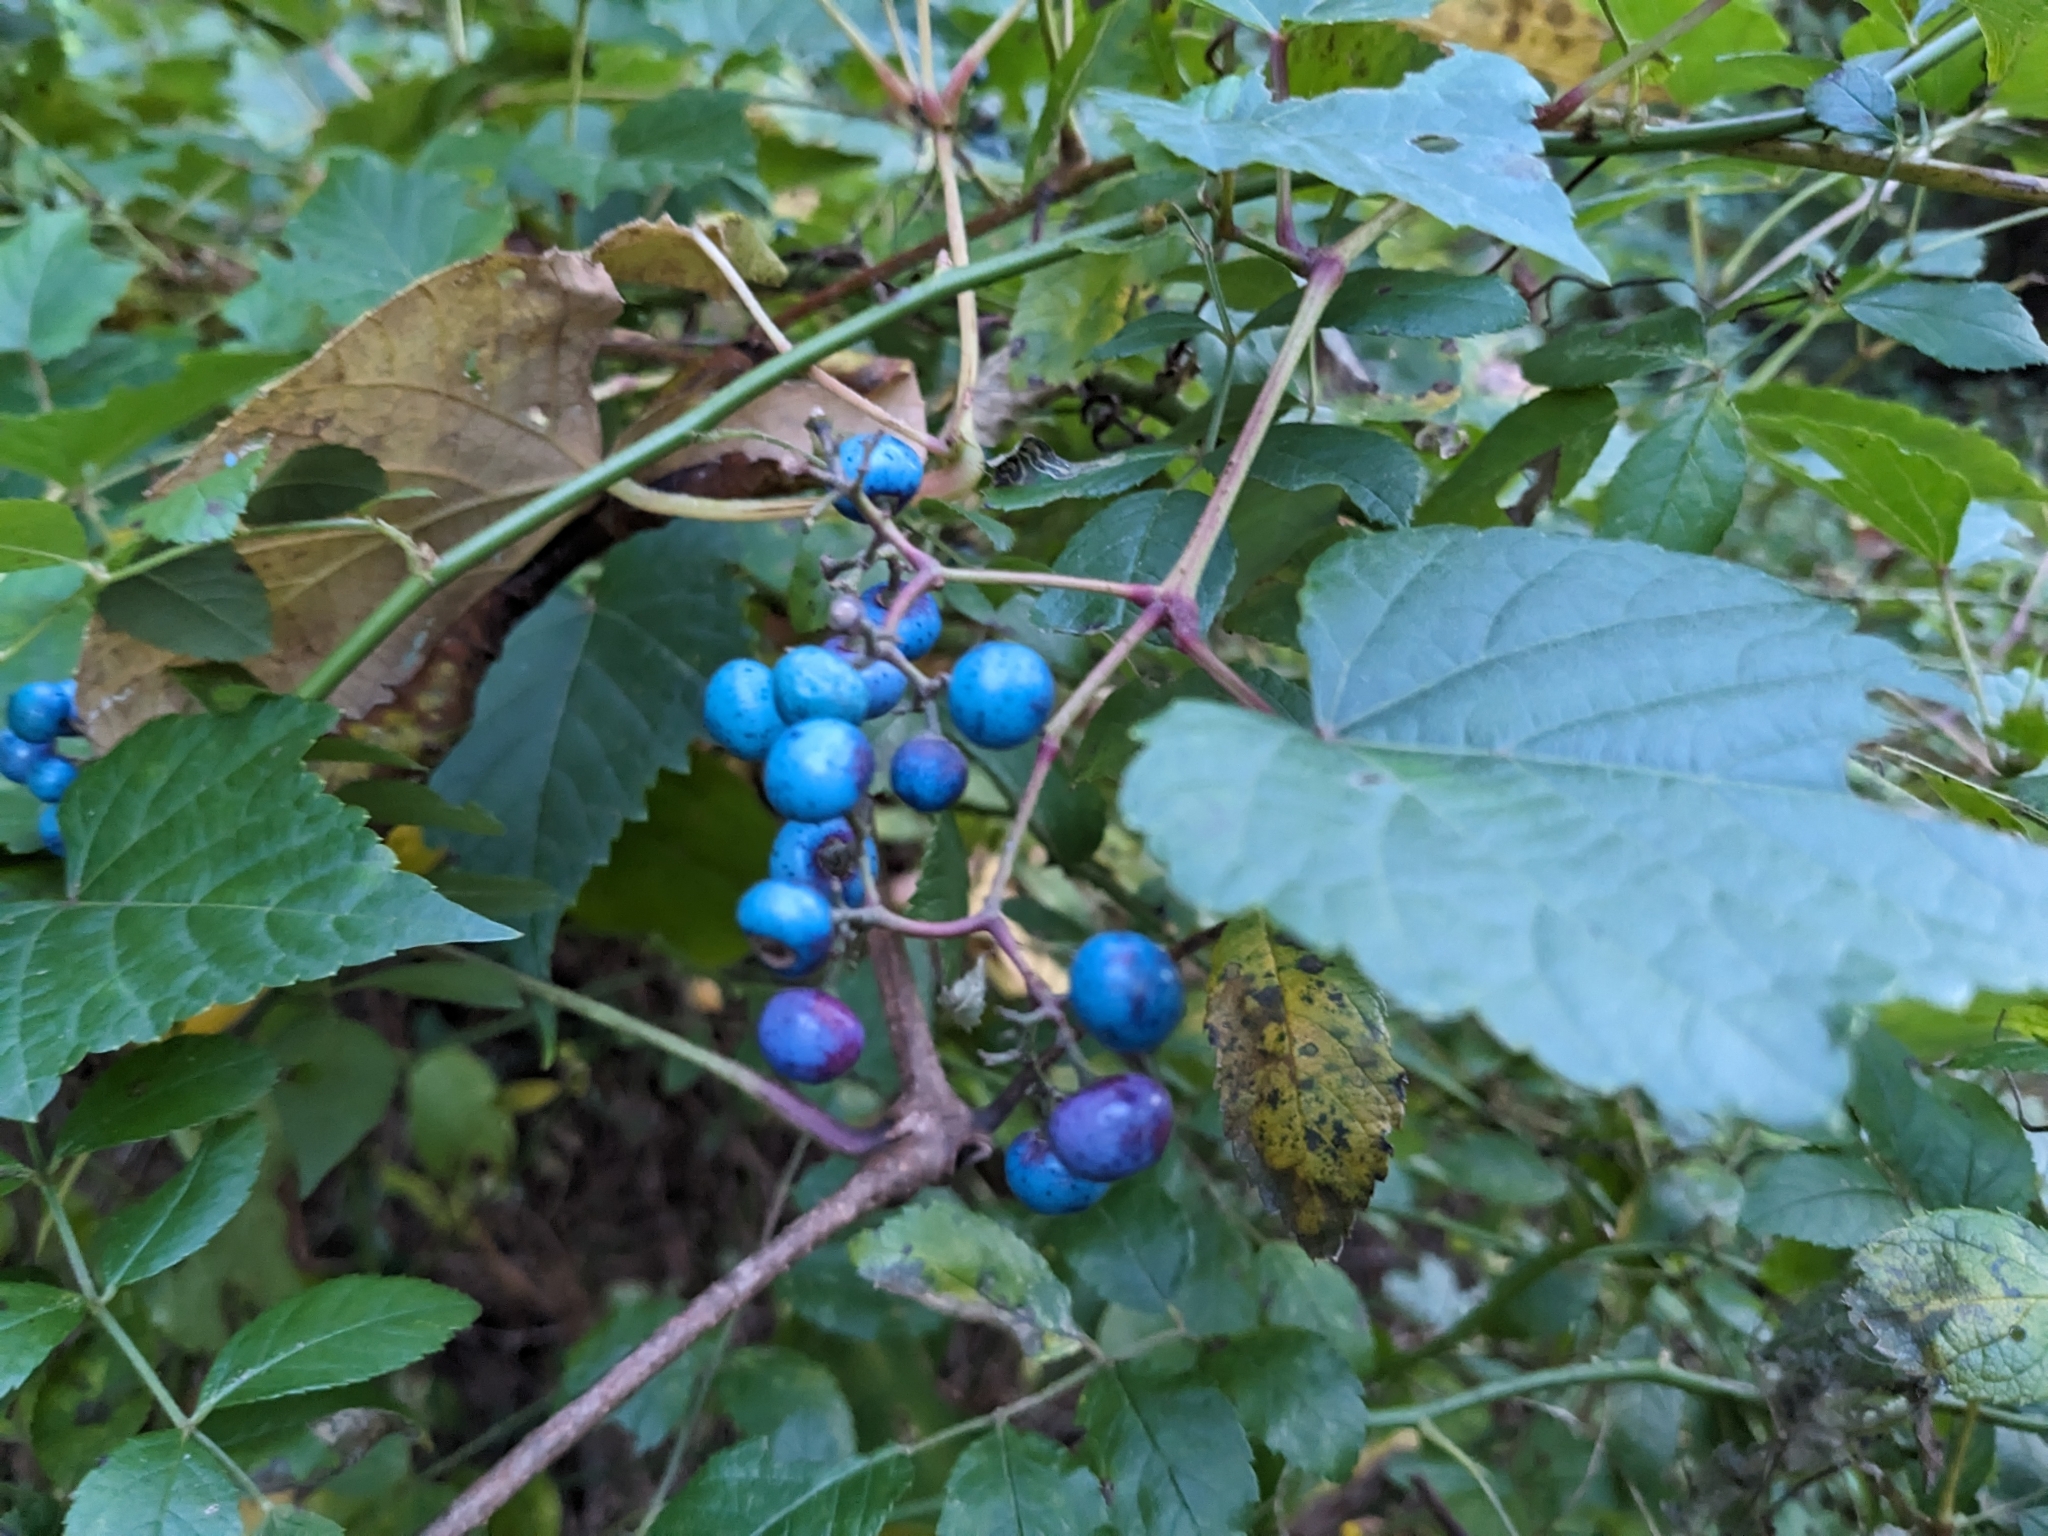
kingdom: Plantae
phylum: Tracheophyta
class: Magnoliopsida
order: Vitales
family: Vitaceae
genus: Ampelopsis
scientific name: Ampelopsis glandulosa
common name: Amur peppervine
